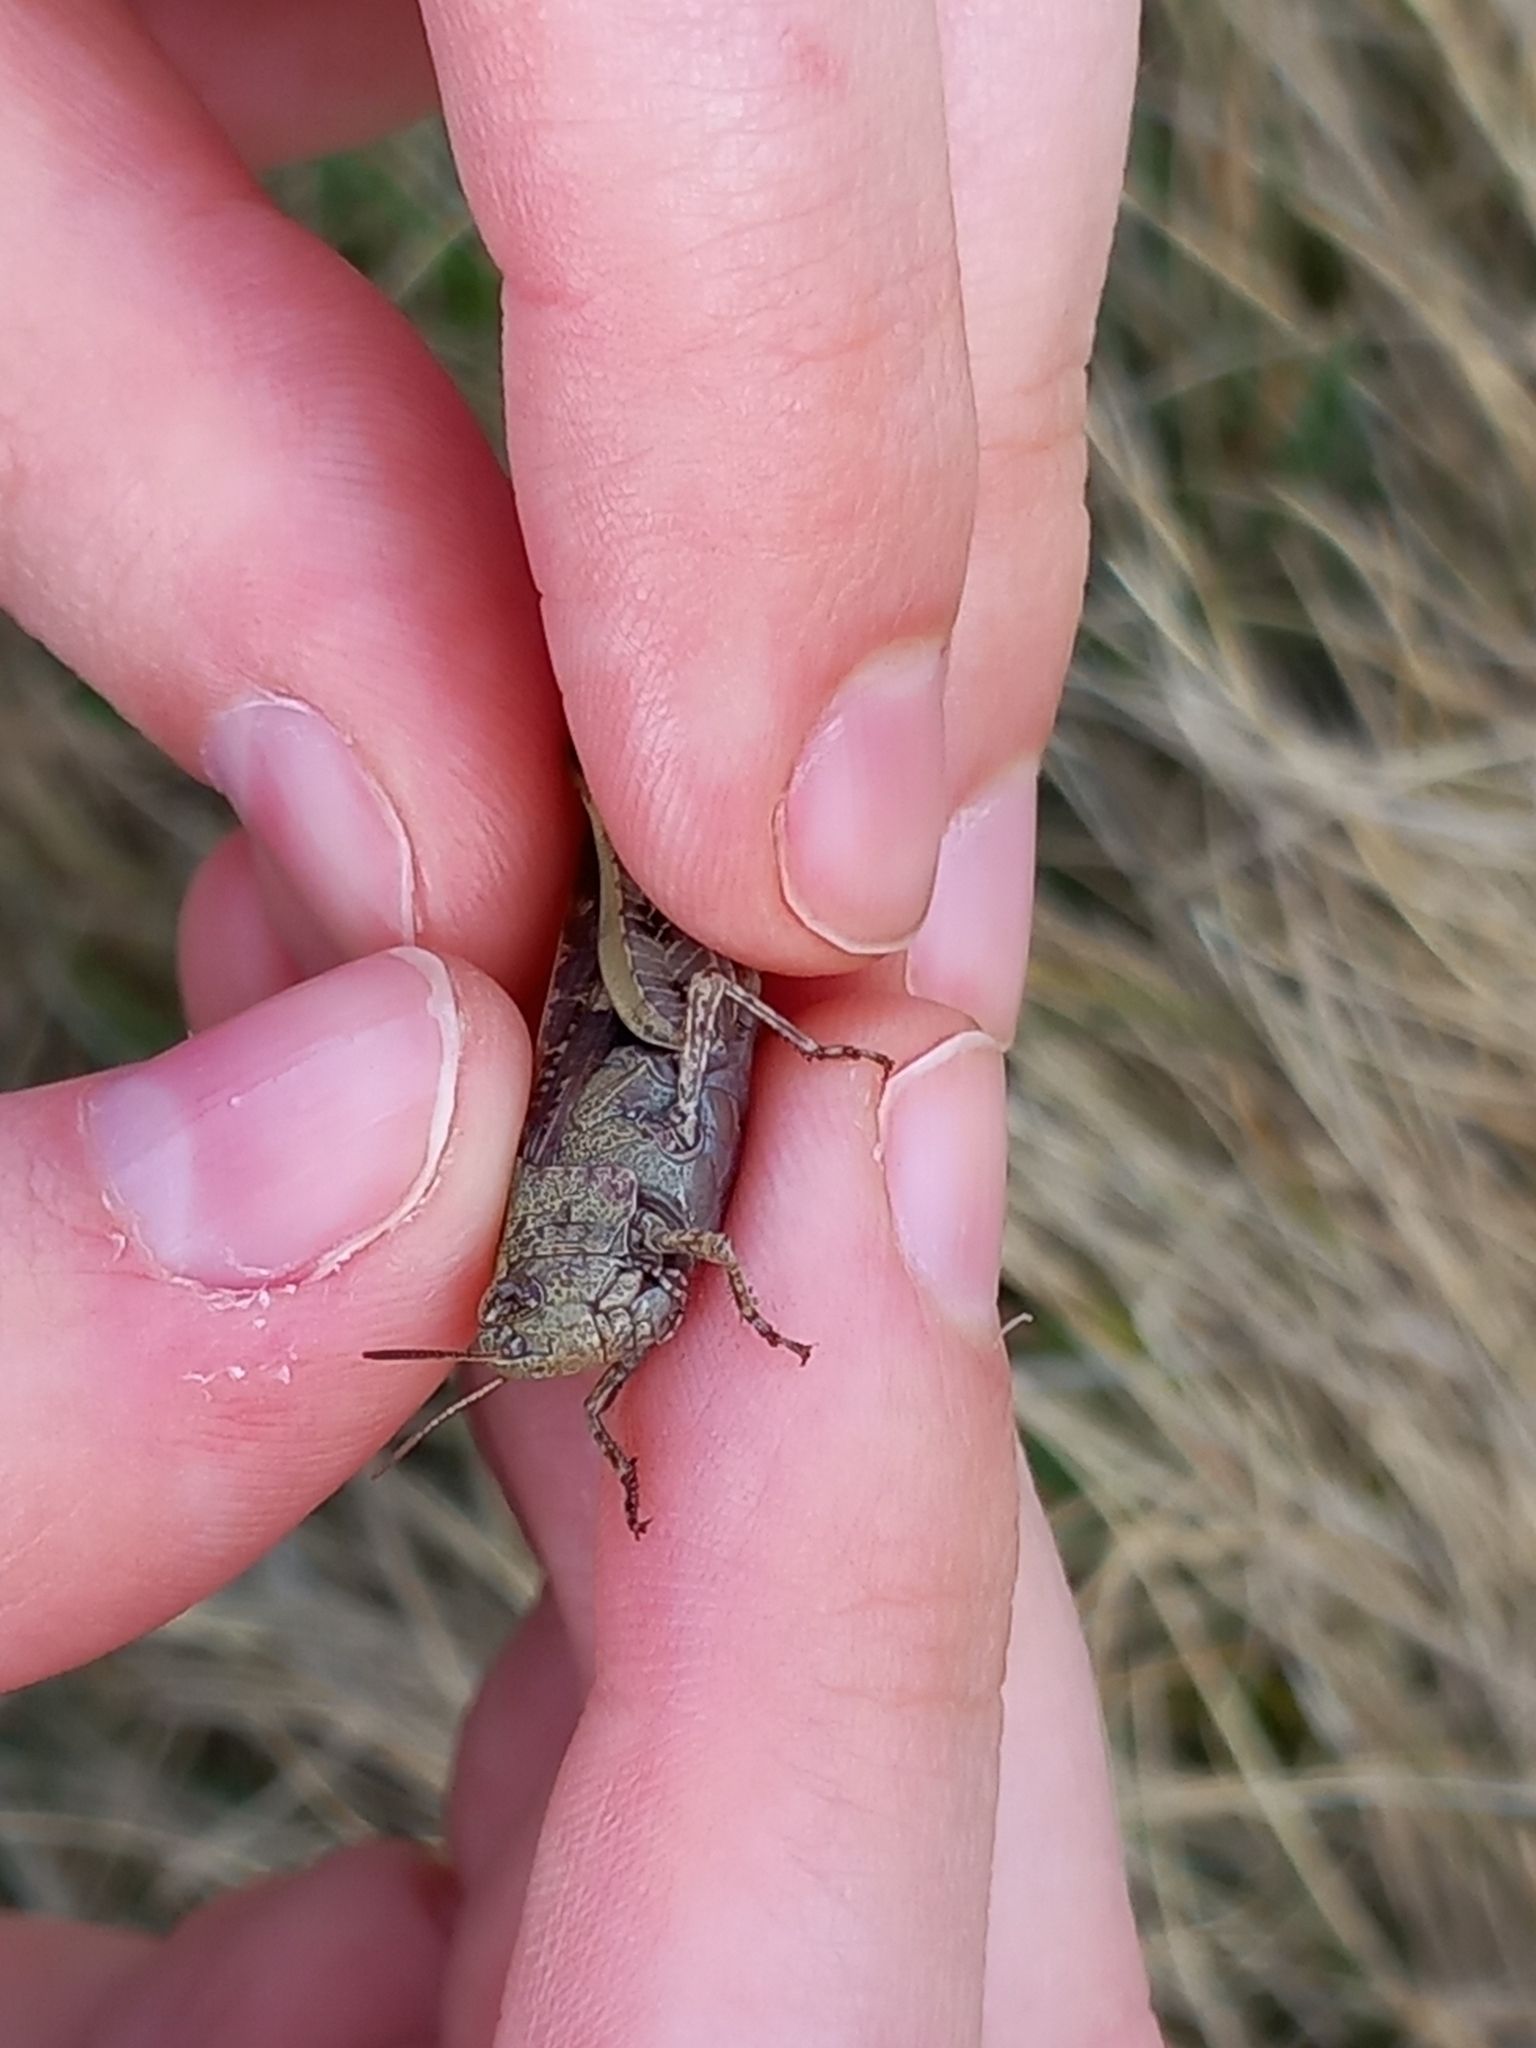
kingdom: Animalia
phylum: Arthropoda
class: Insecta
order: Orthoptera
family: Acrididae
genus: Aiolopus
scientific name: Aiolopus strepens
